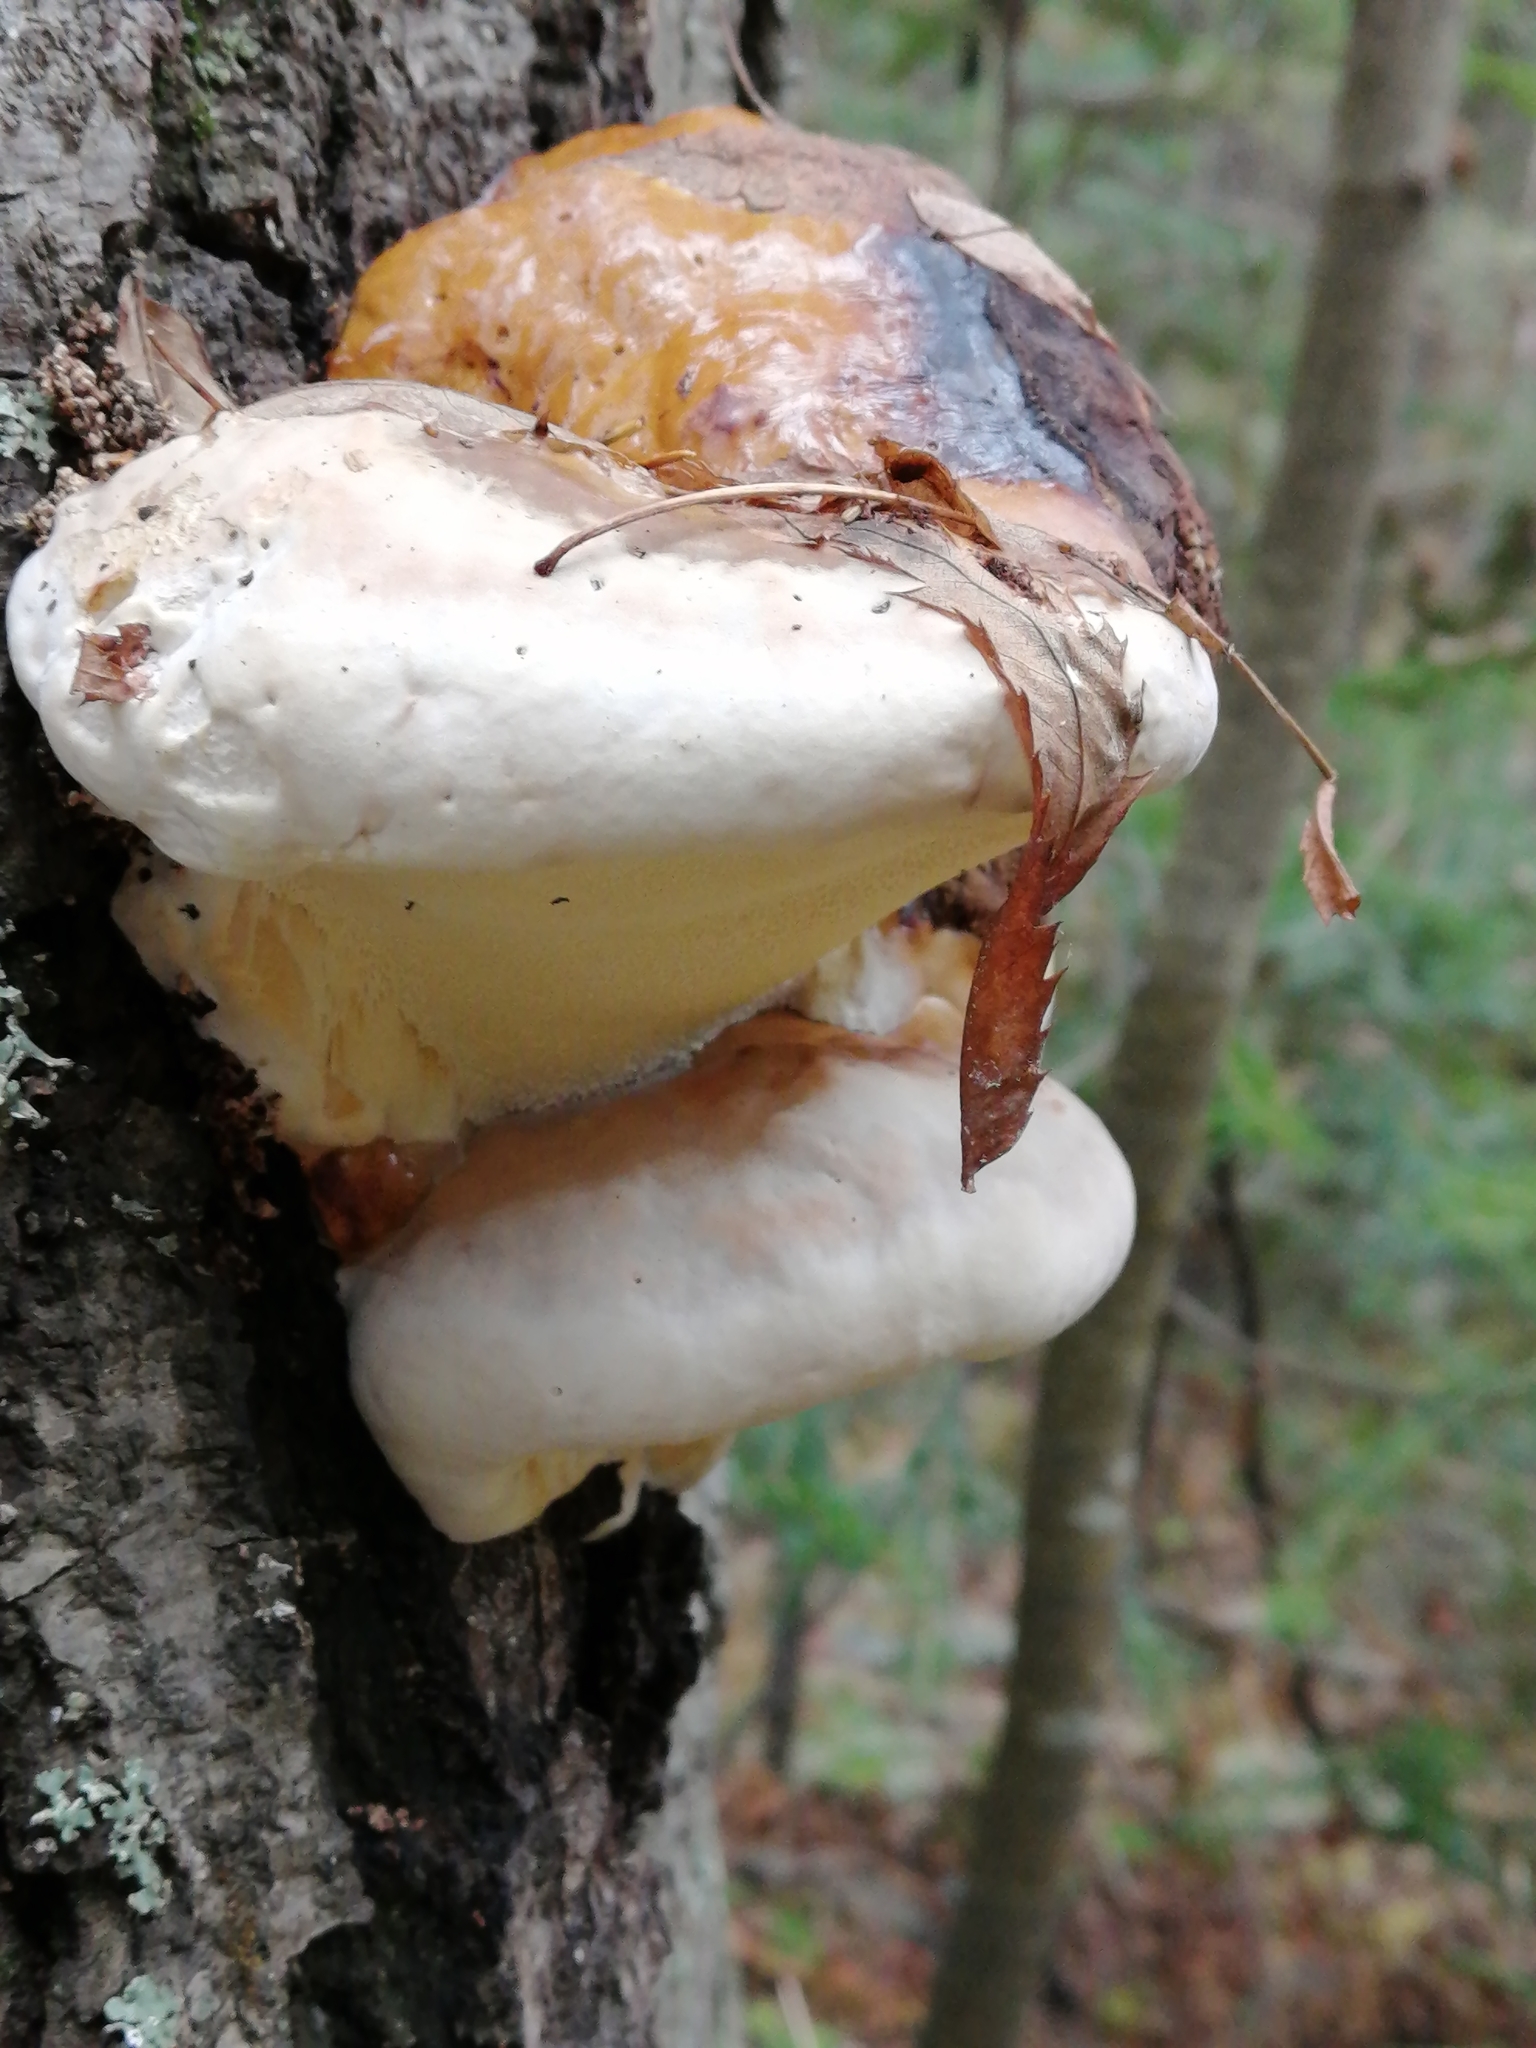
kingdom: Fungi
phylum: Basidiomycota
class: Agaricomycetes
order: Polyporales
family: Fomitopsidaceae
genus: Fomitopsis
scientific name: Fomitopsis pinicola
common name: Red-belted bracket
